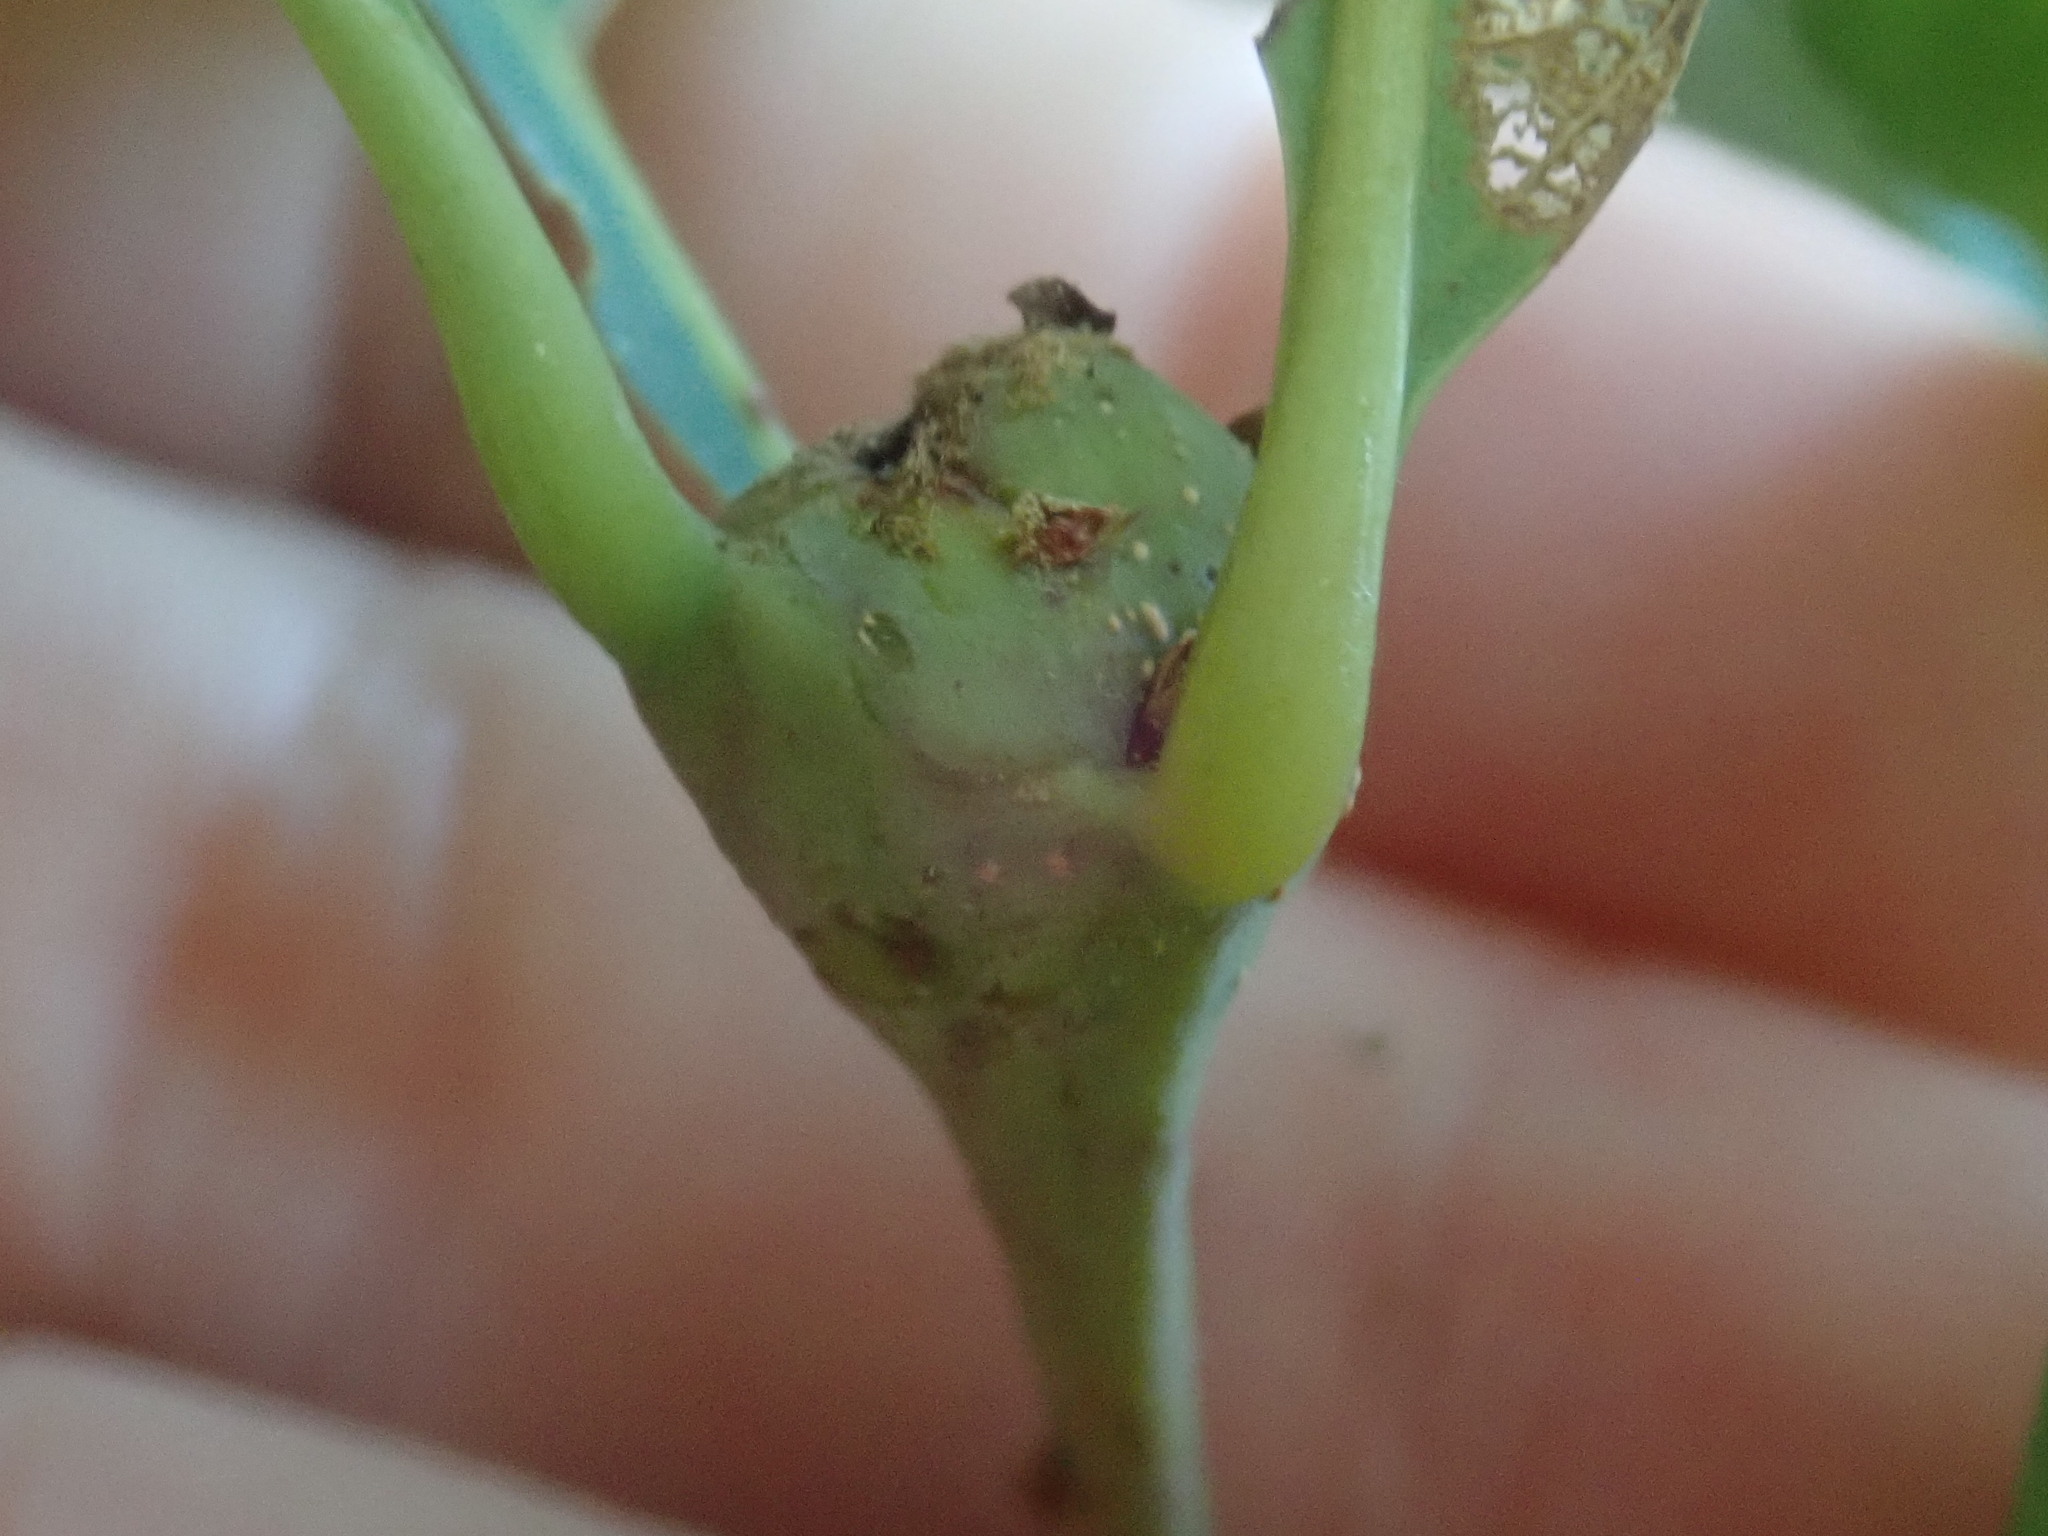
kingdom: Animalia
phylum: Arthropoda
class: Insecta
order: Hymenoptera
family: Cynipidae
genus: Callirhytis
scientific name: Callirhytis clavula
